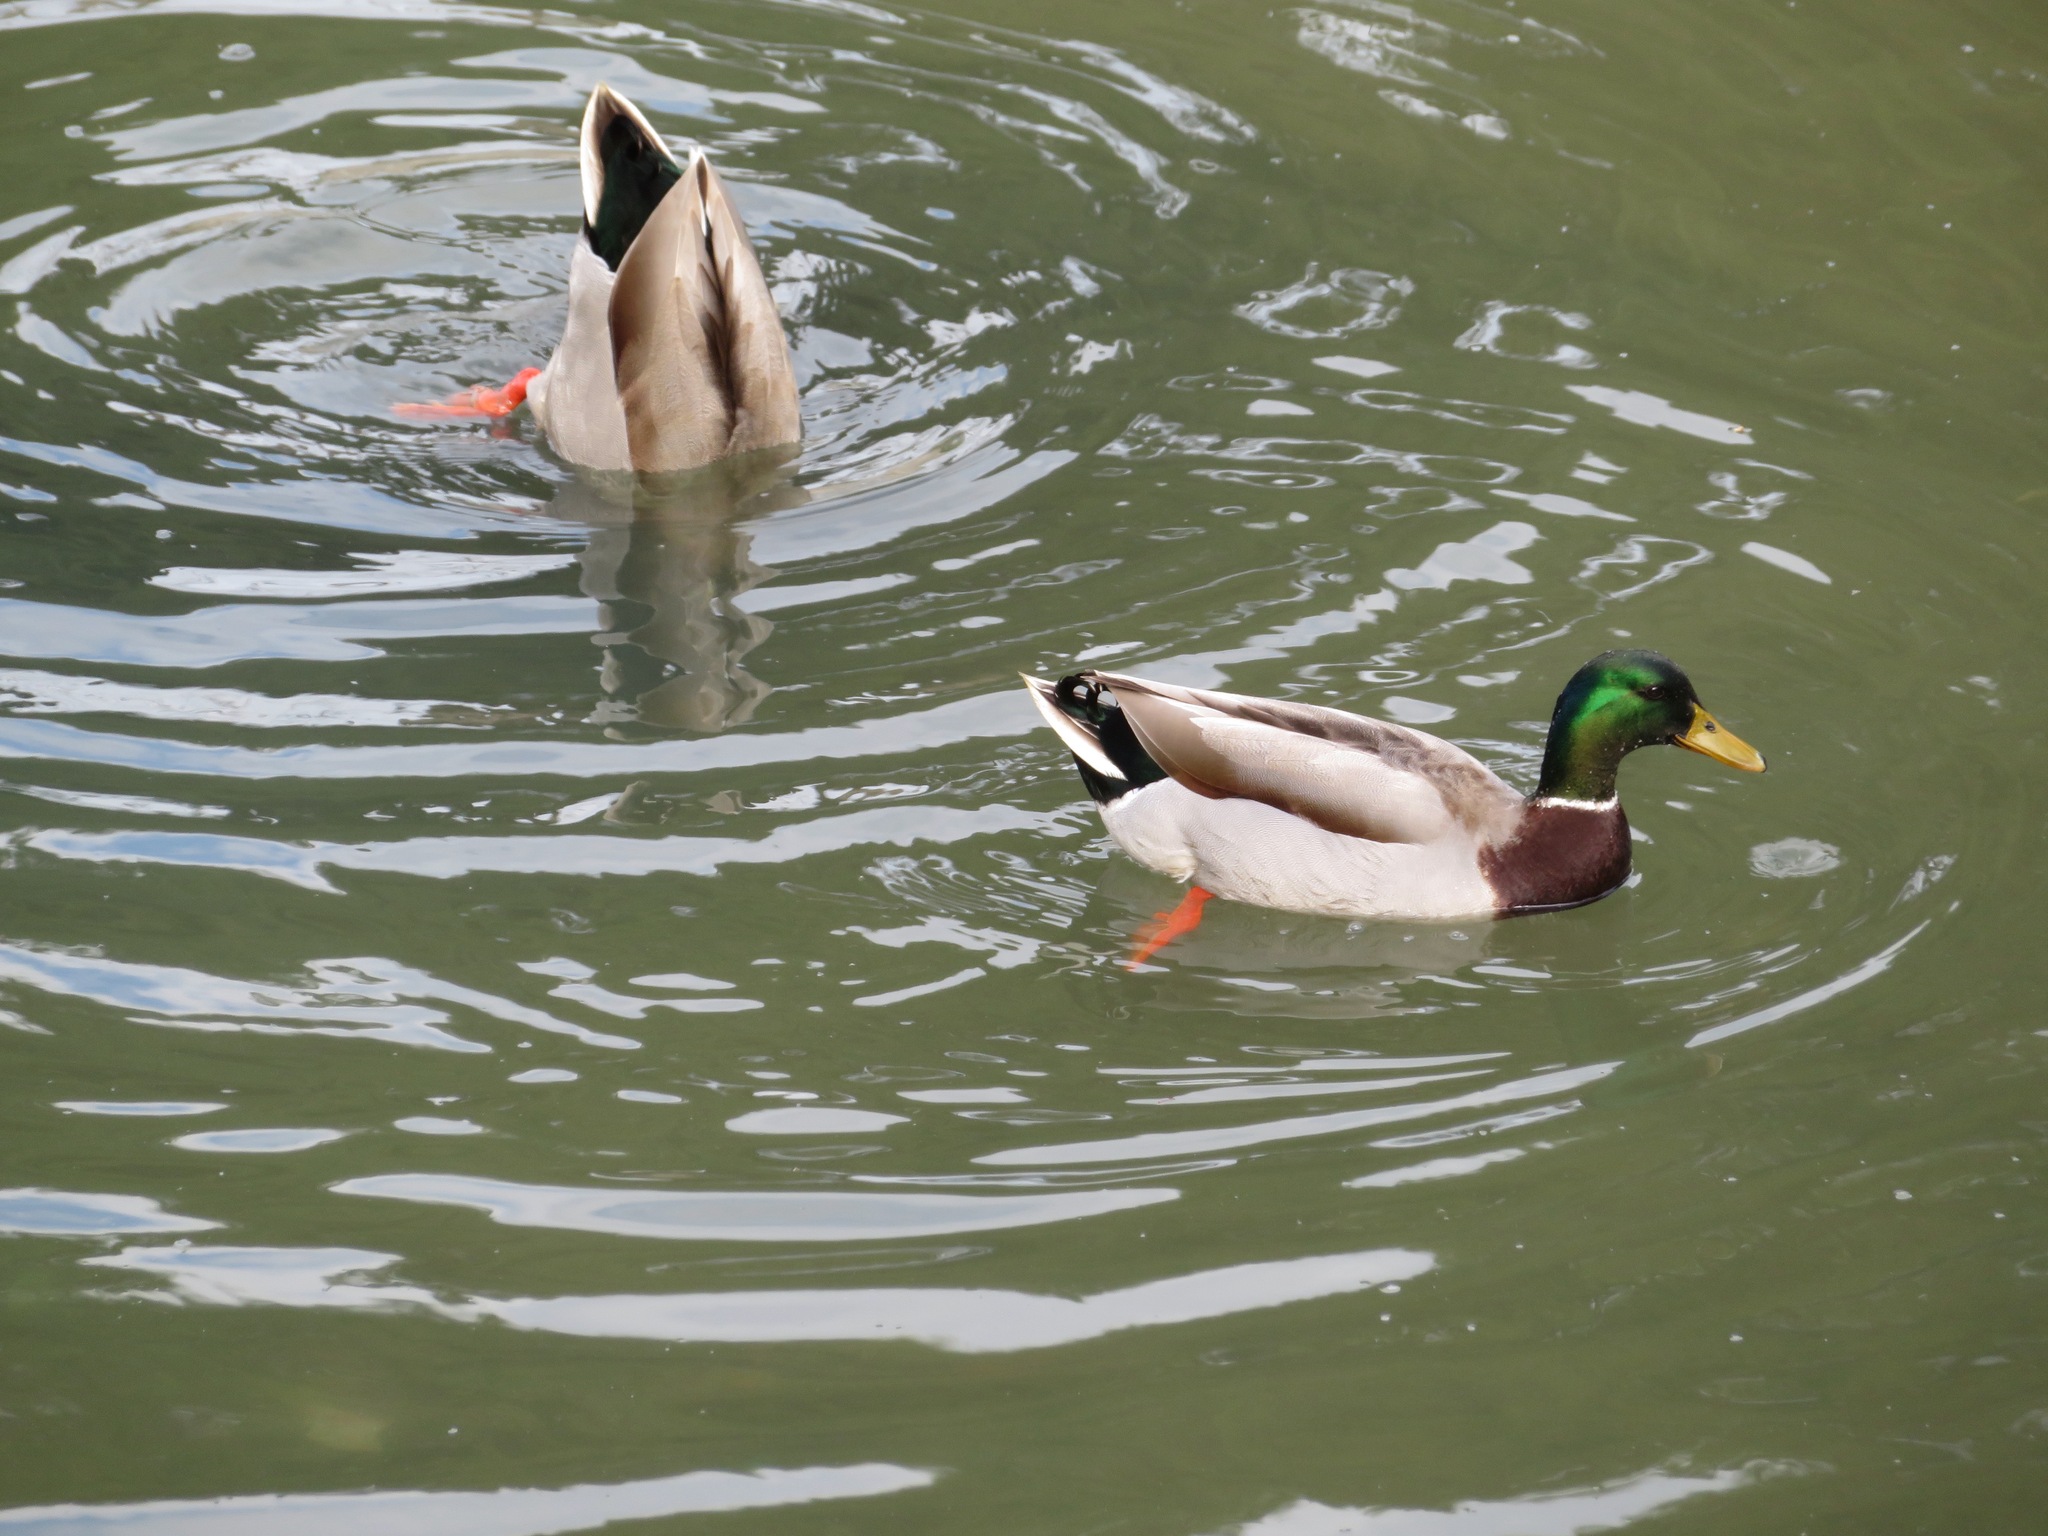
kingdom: Animalia
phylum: Chordata
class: Aves
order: Anseriformes
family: Anatidae
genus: Anas
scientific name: Anas platyrhynchos
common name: Mallard
